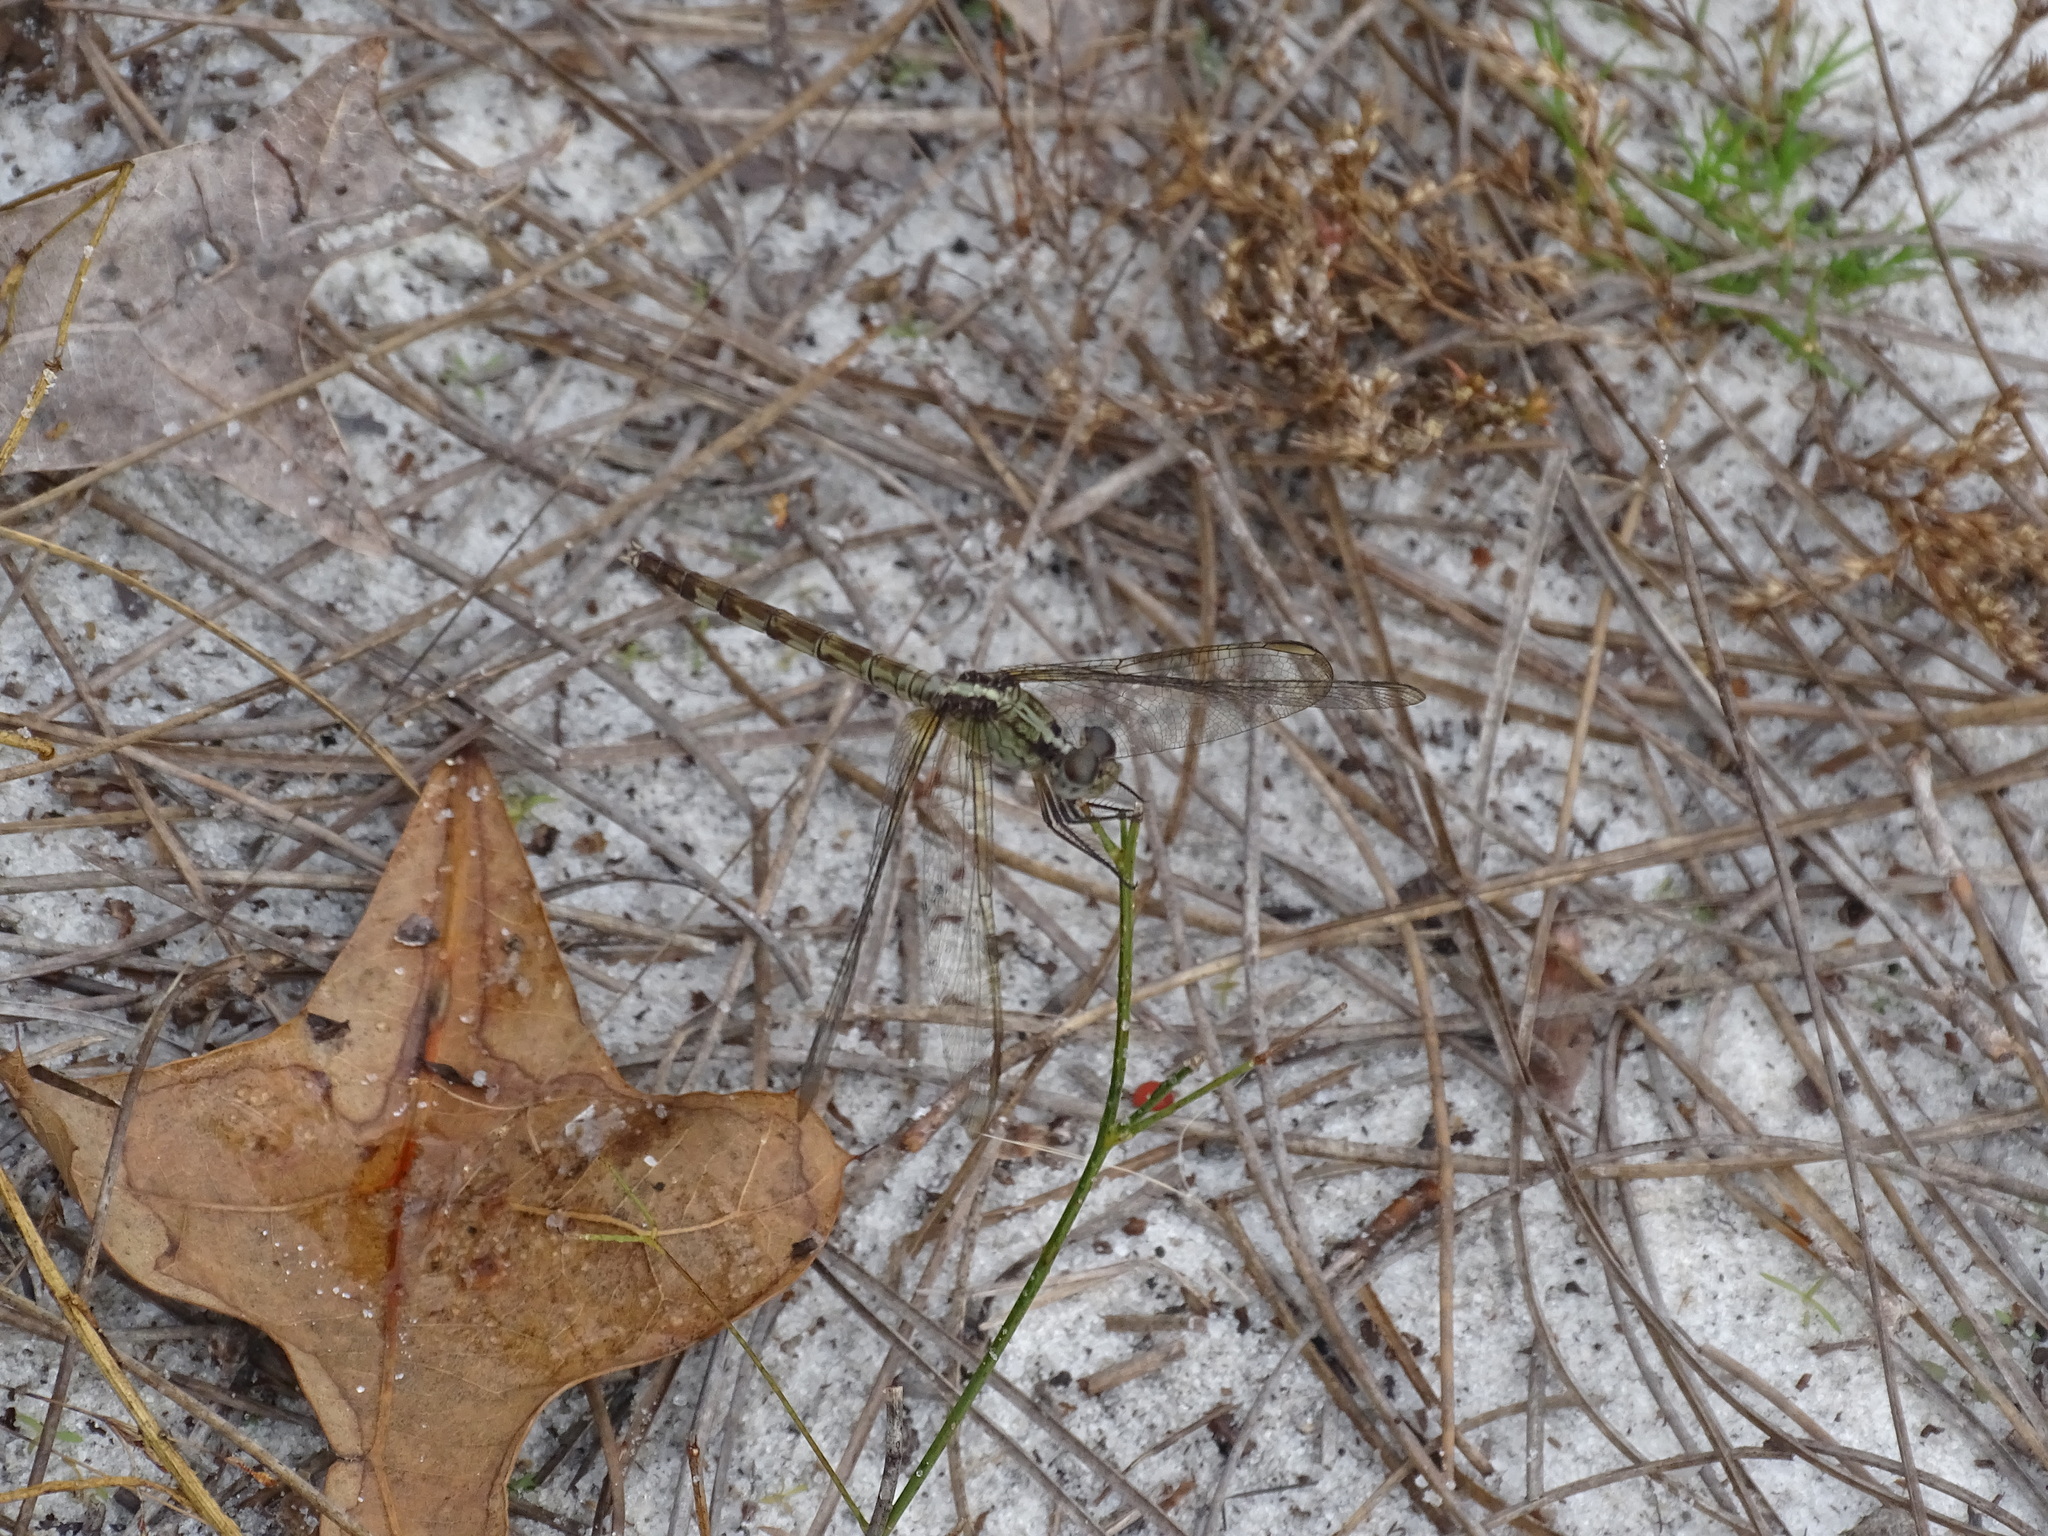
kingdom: Animalia
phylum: Arthropoda
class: Insecta
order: Odonata
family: Libellulidae
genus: Erythrodiplax
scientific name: Erythrodiplax umbrata
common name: Band-winged dragonlet
